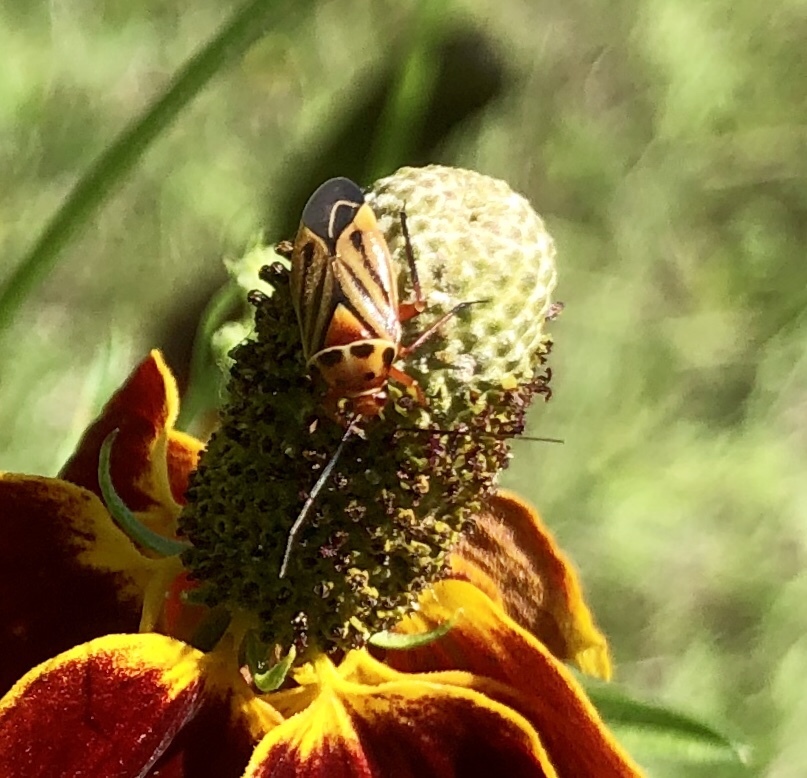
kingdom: Animalia
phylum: Arthropoda
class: Insecta
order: Hemiptera
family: Miridae
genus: Calocoris
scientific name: Calocoris barberi
